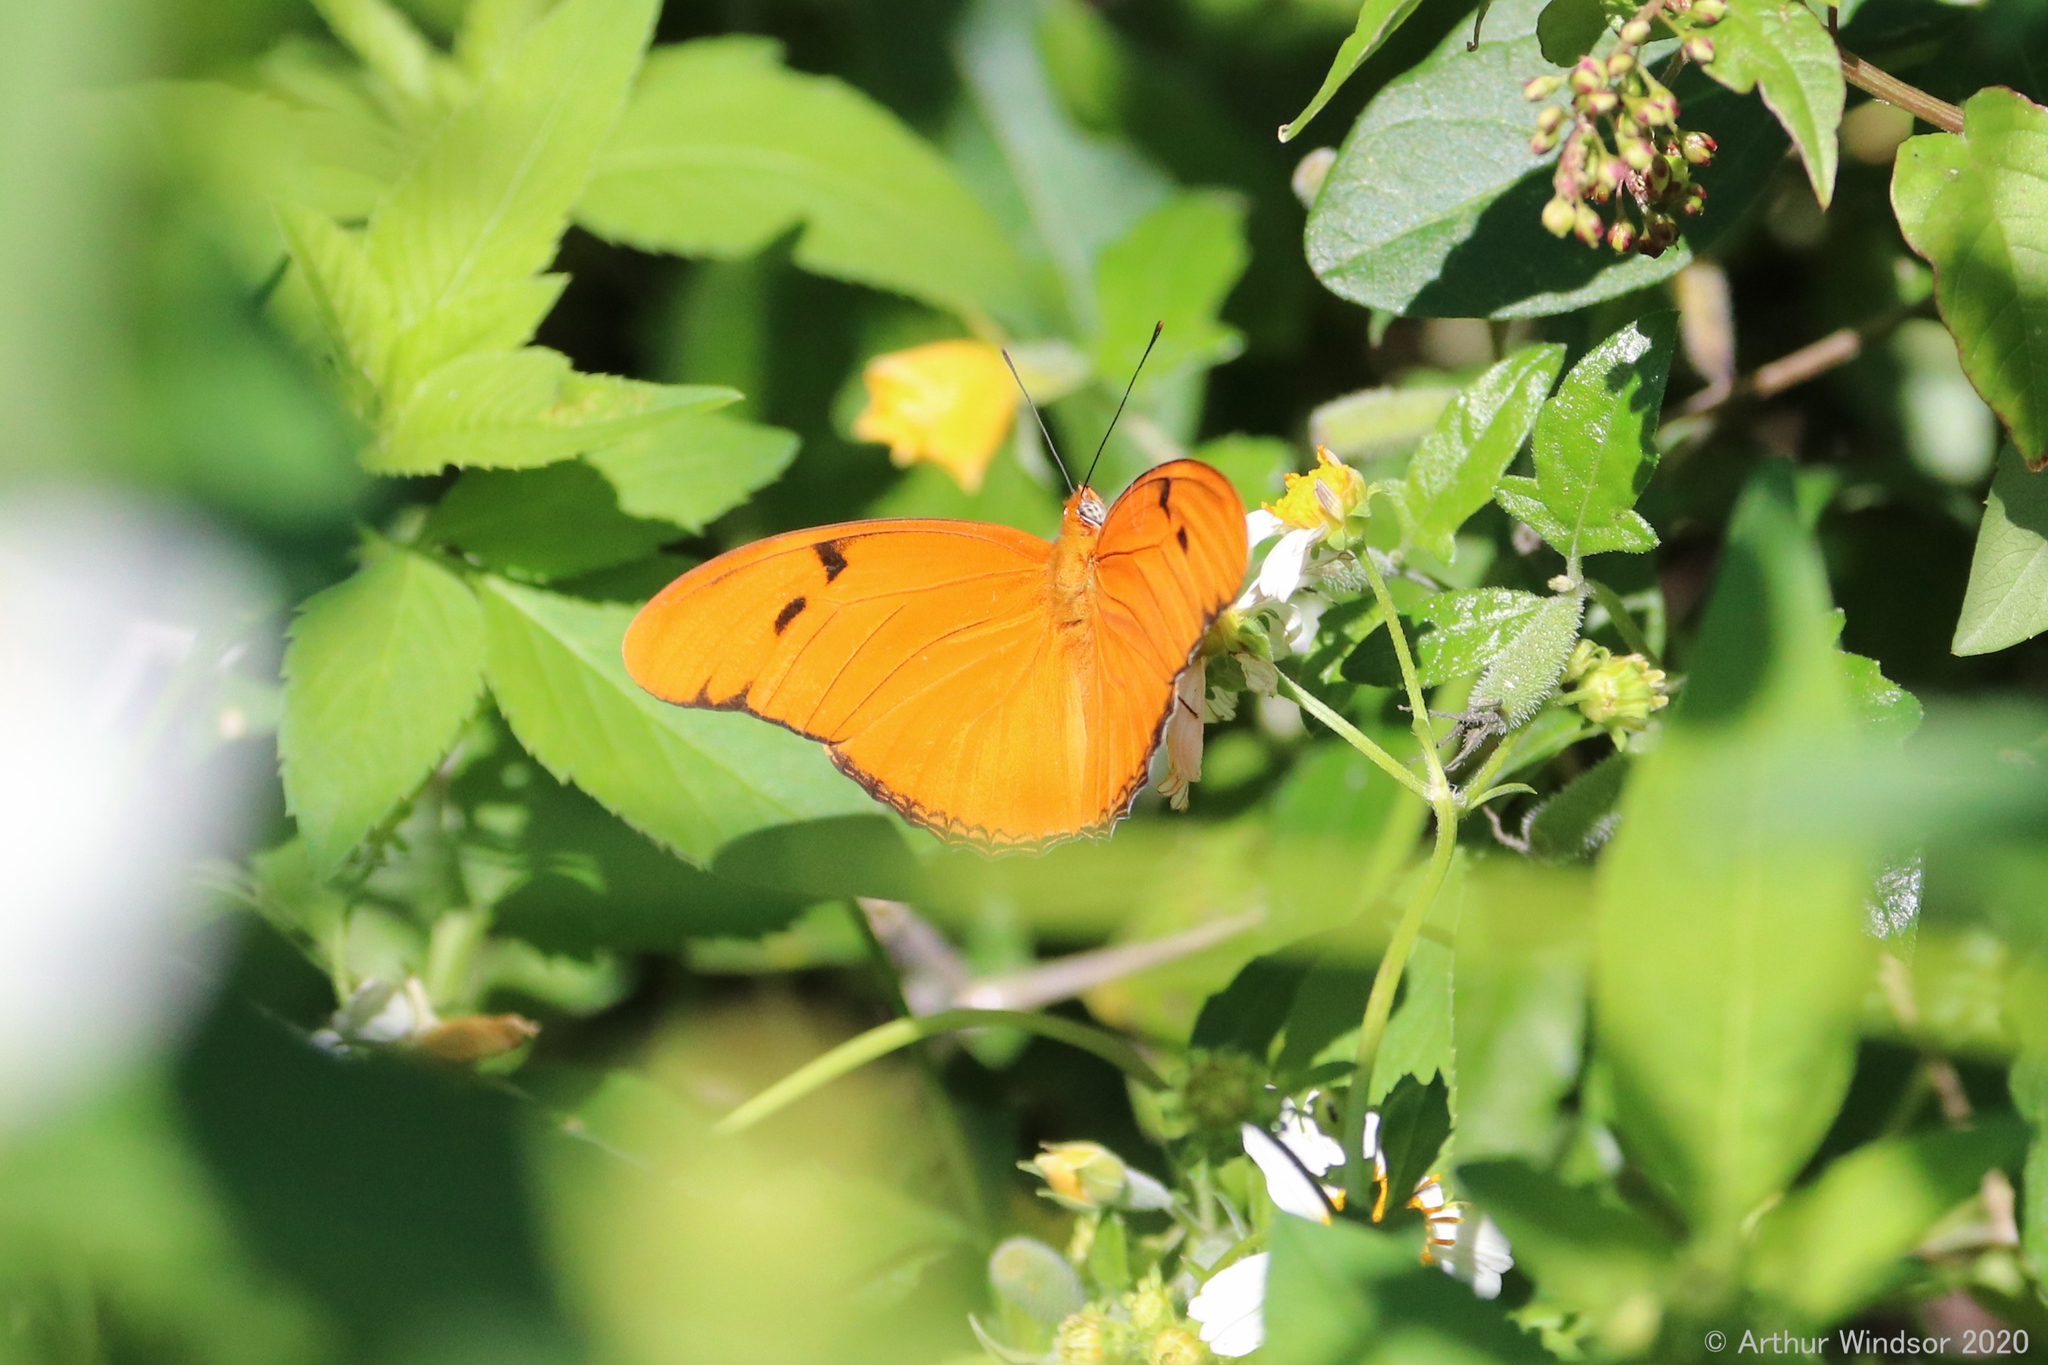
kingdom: Animalia
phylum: Arthropoda
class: Insecta
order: Lepidoptera
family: Nymphalidae
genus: Dryas
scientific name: Dryas iulia
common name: Flambeau
